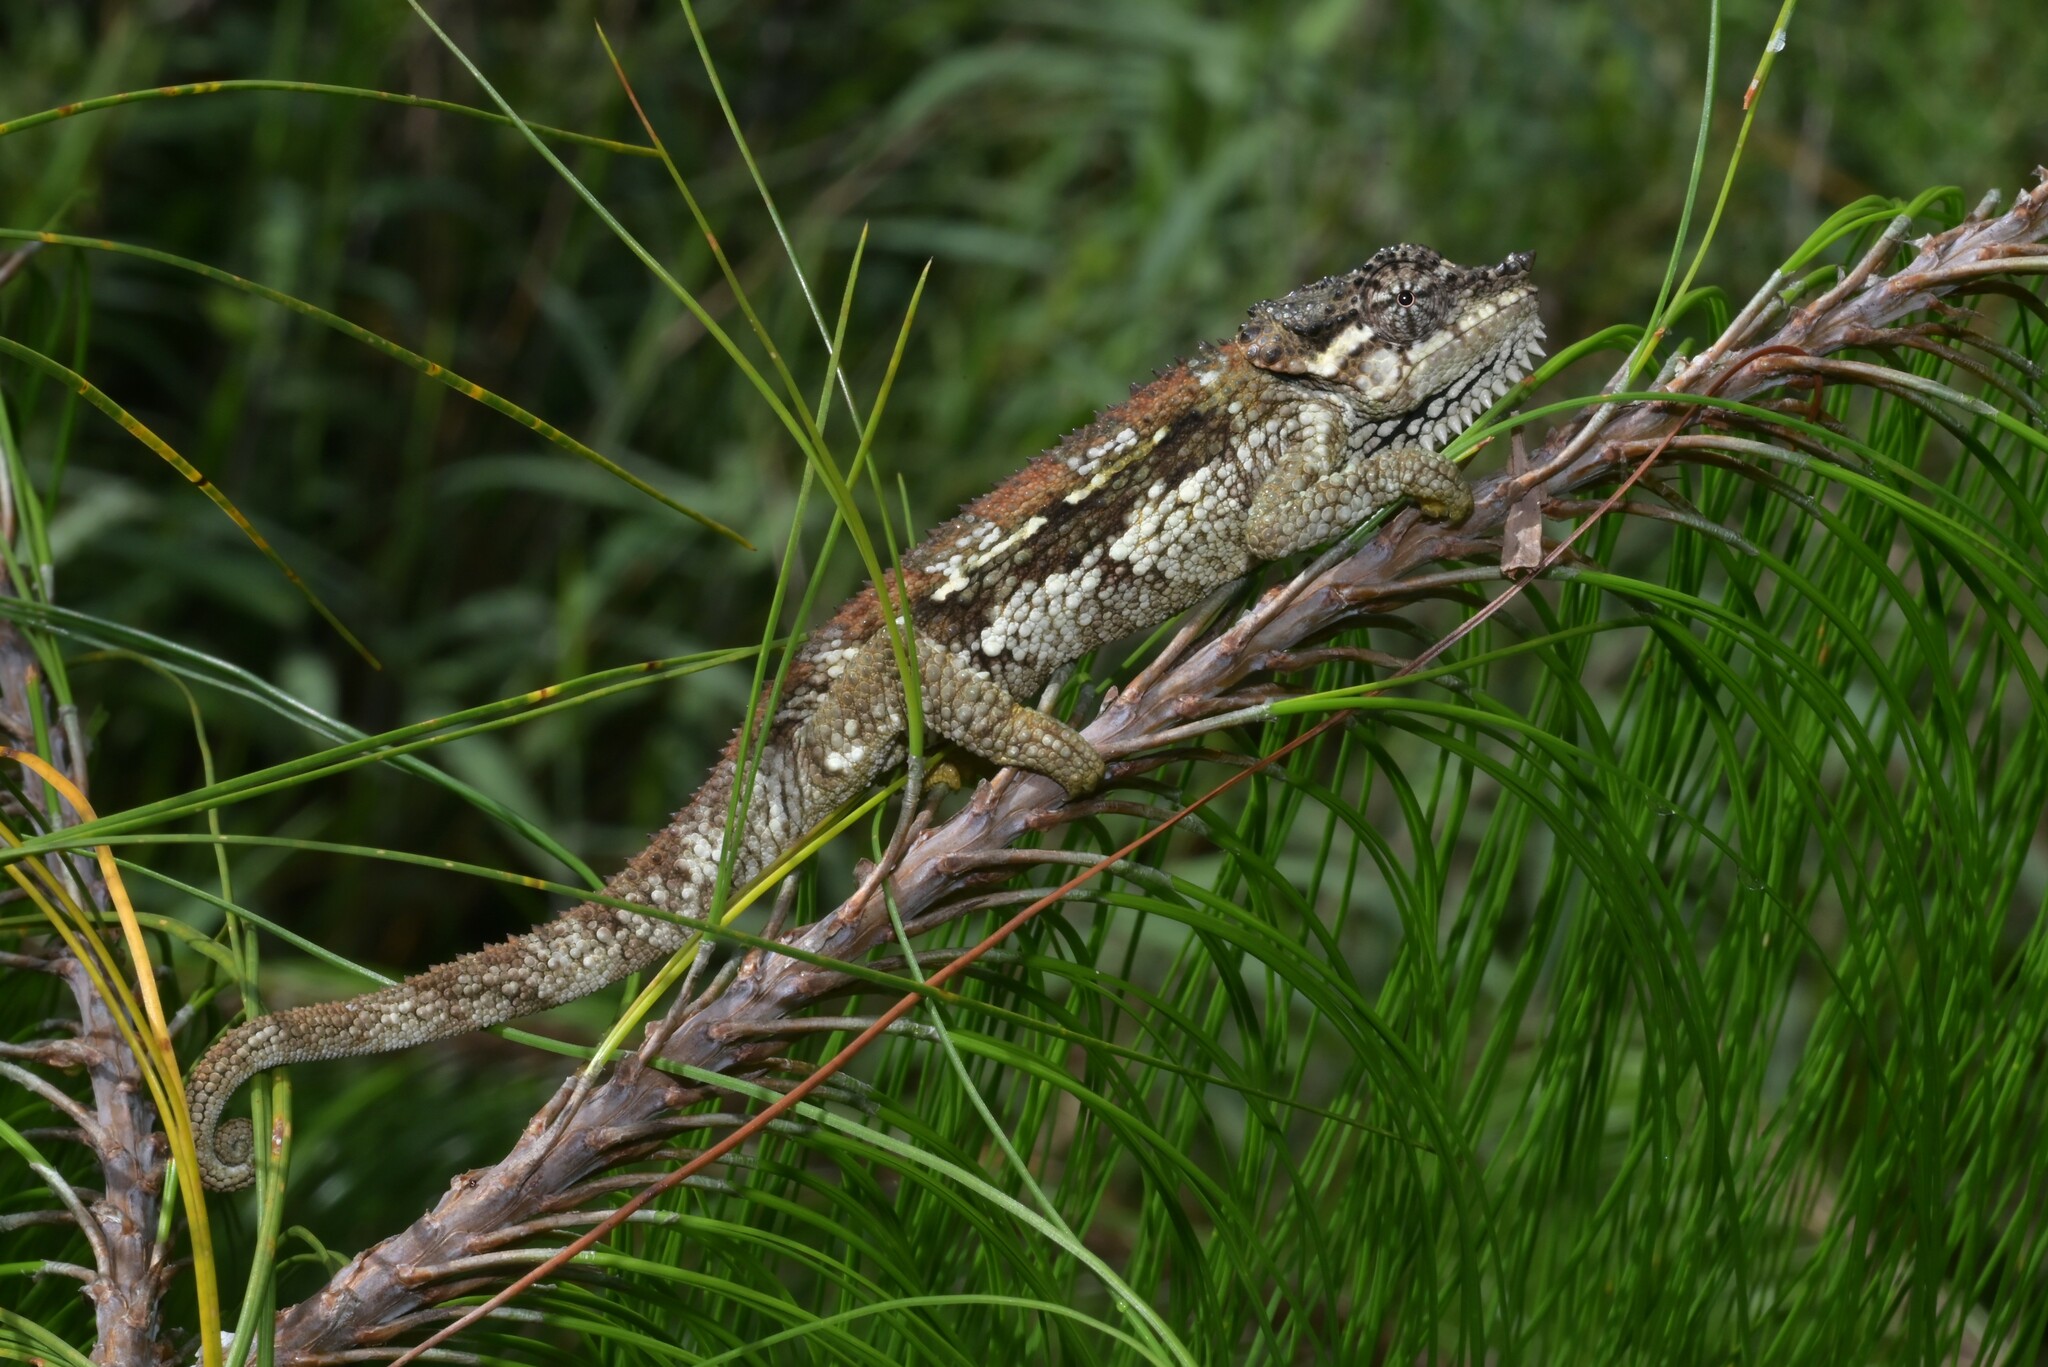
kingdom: Animalia
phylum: Chordata
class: Squamata
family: Chamaeleonidae
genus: Trioceros
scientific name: Trioceros tempeli
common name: Tanzania mountain chameleon
